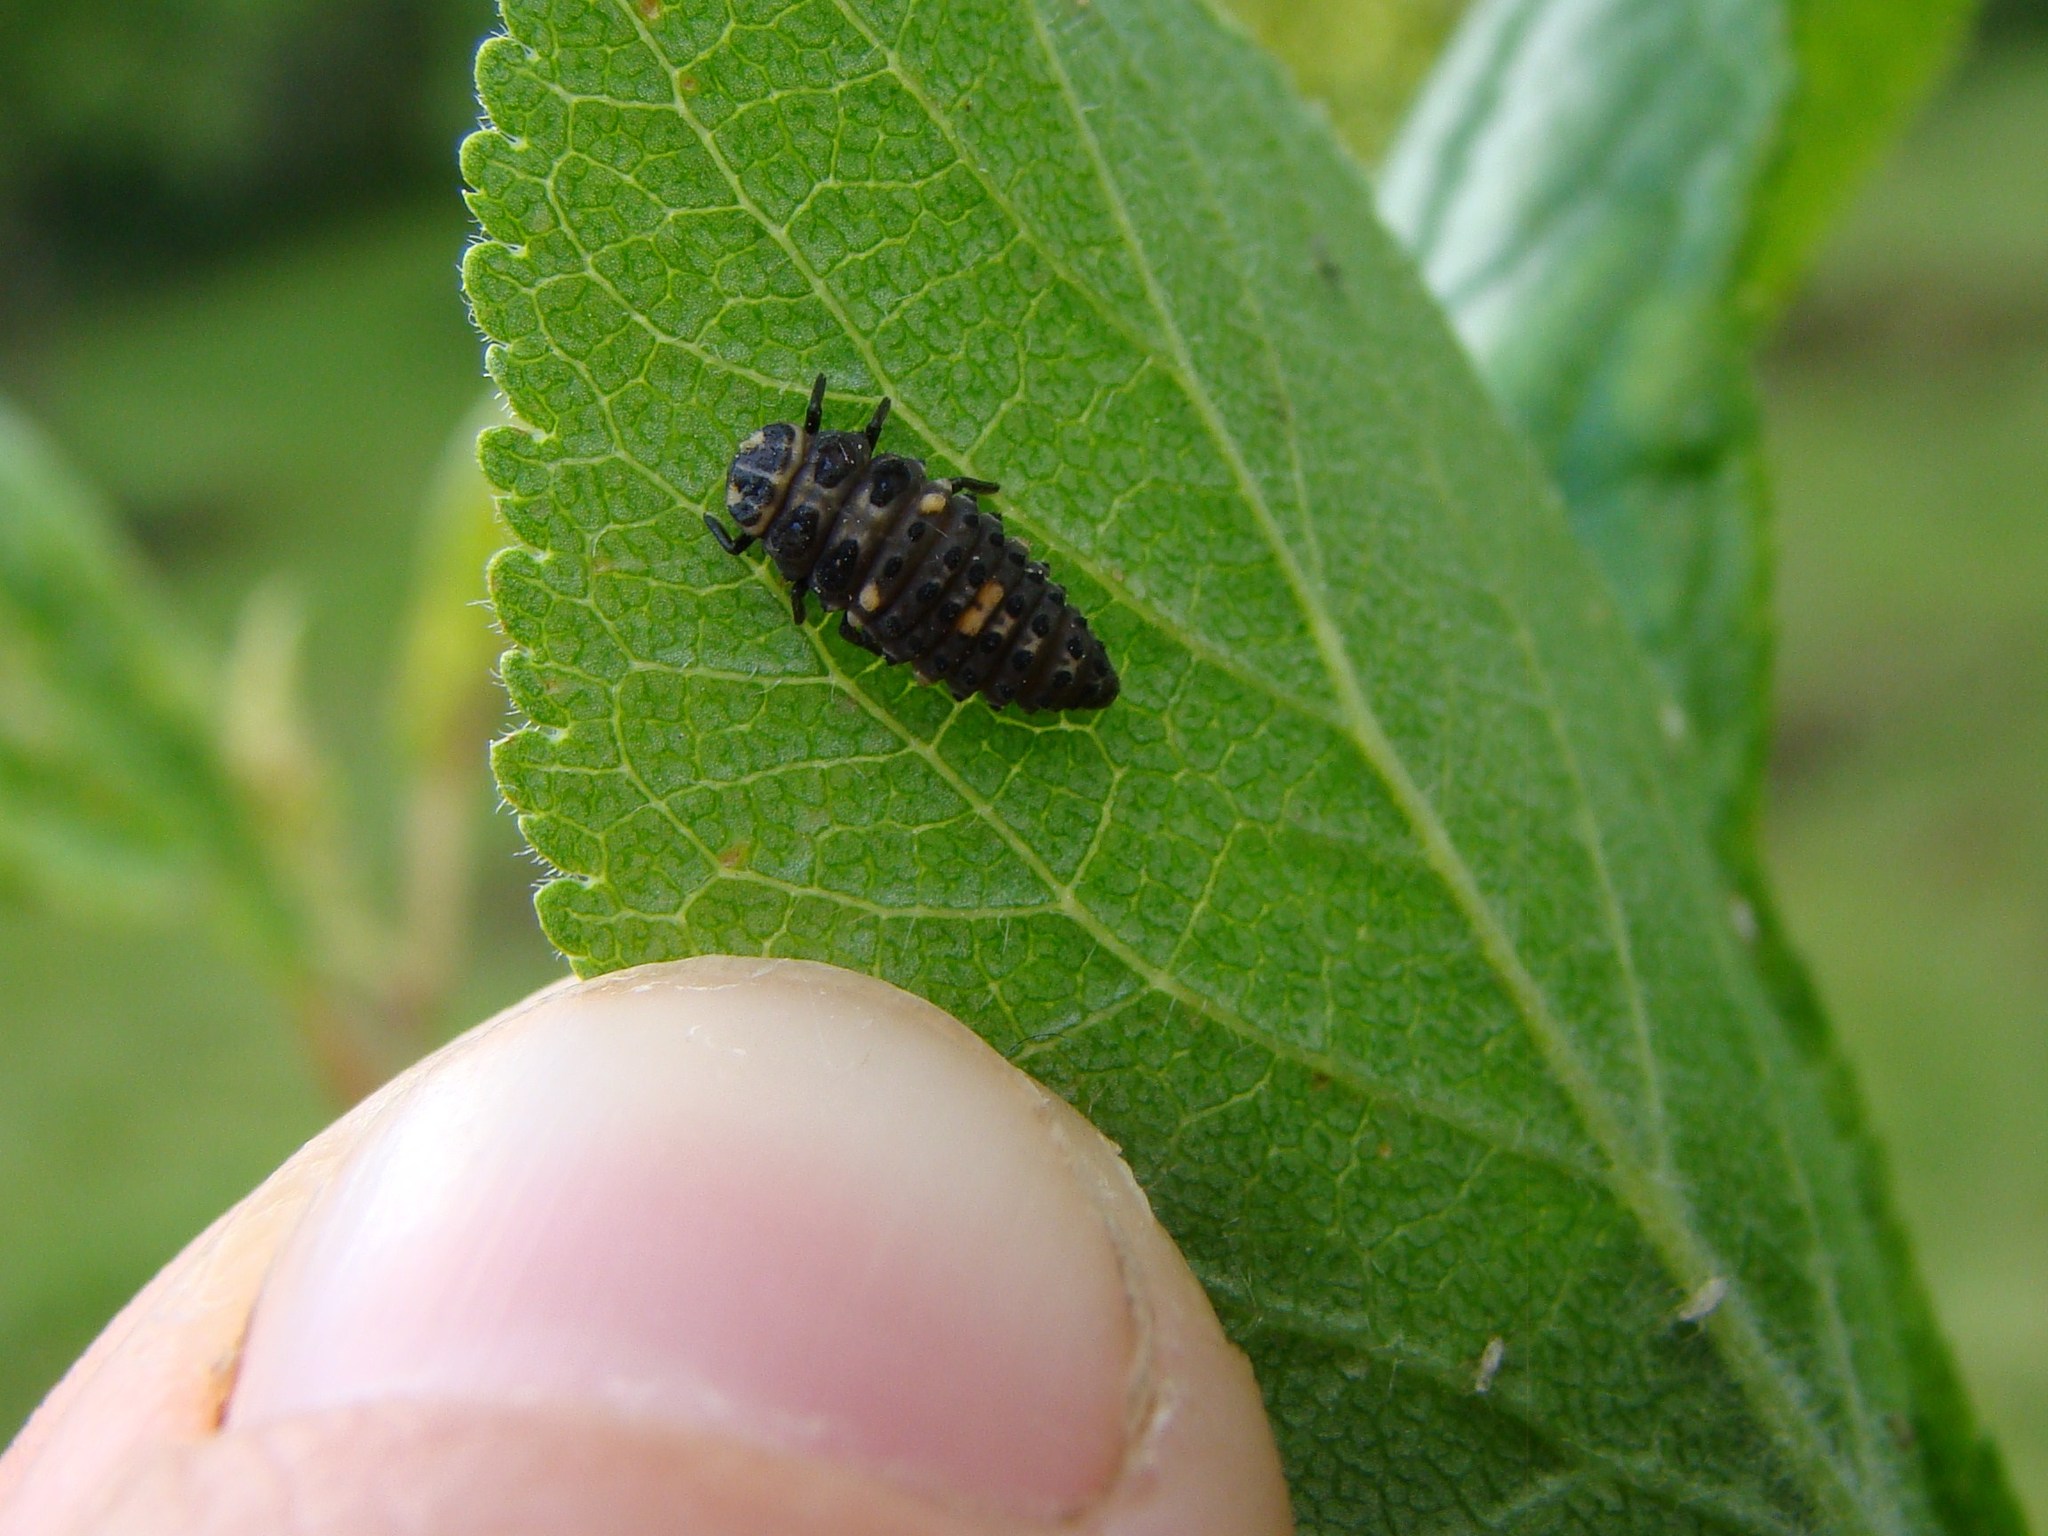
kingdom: Animalia
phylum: Arthropoda
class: Insecta
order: Coleoptera
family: Coccinellidae
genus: Adalia
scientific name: Adalia bipunctata
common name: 2-spot ladybird
